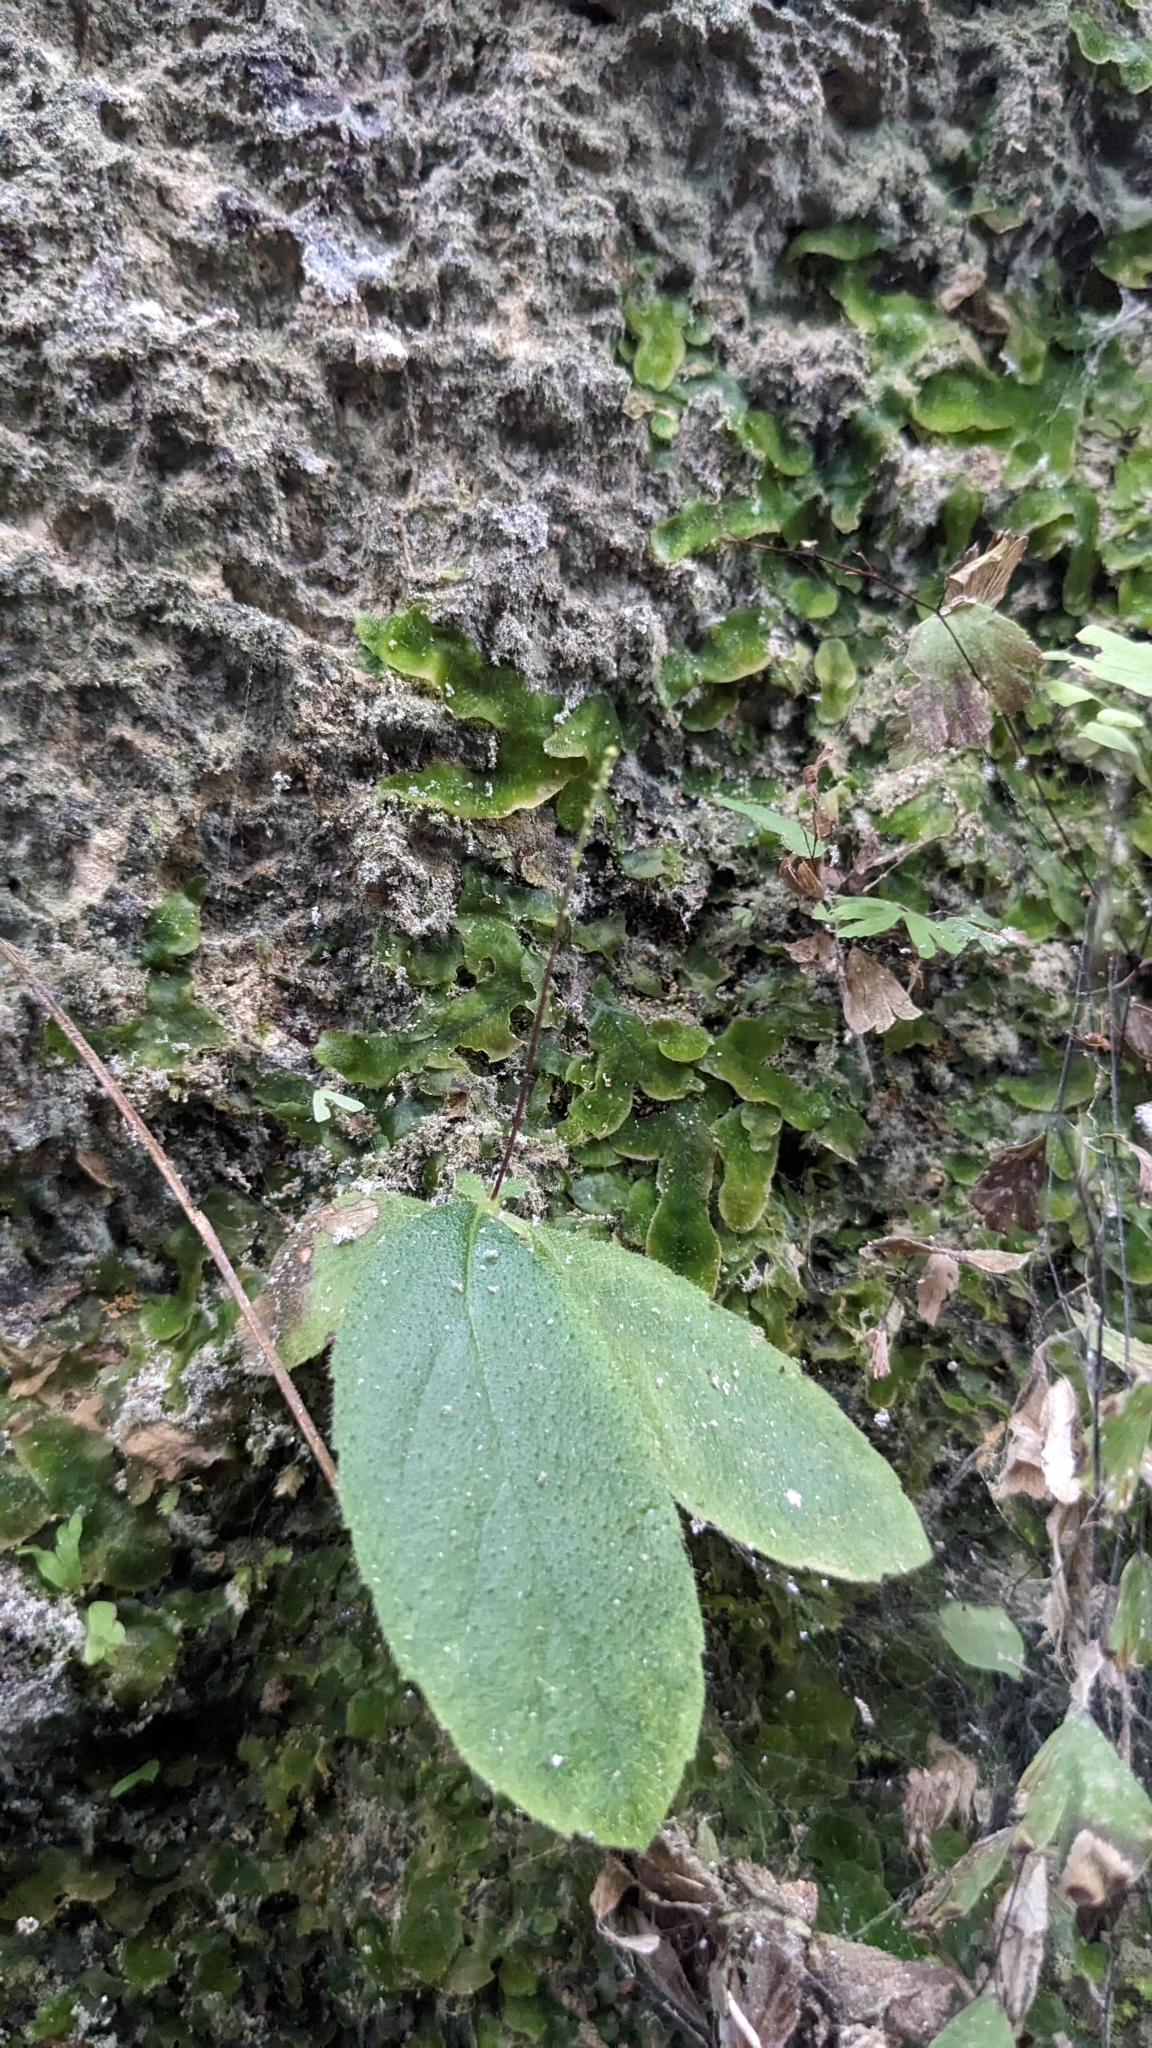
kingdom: Plantae
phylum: Tracheophyta
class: Magnoliopsida
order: Lamiales
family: Gesneriaceae
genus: Titanotrichum
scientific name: Titanotrichum oldhamii
